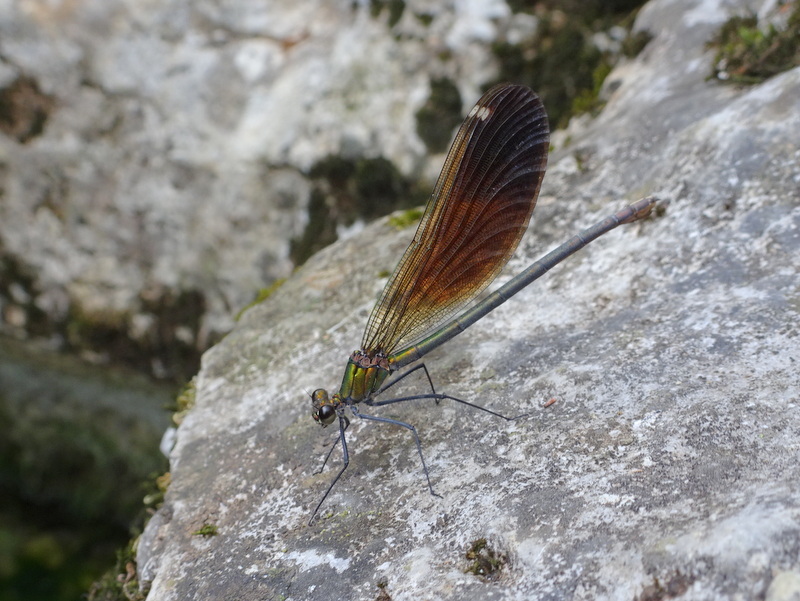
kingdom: Animalia
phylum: Arthropoda
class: Insecta
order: Odonata
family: Calopterygidae
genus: Calopteryx
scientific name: Calopteryx virgo
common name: Beautiful demoiselle
